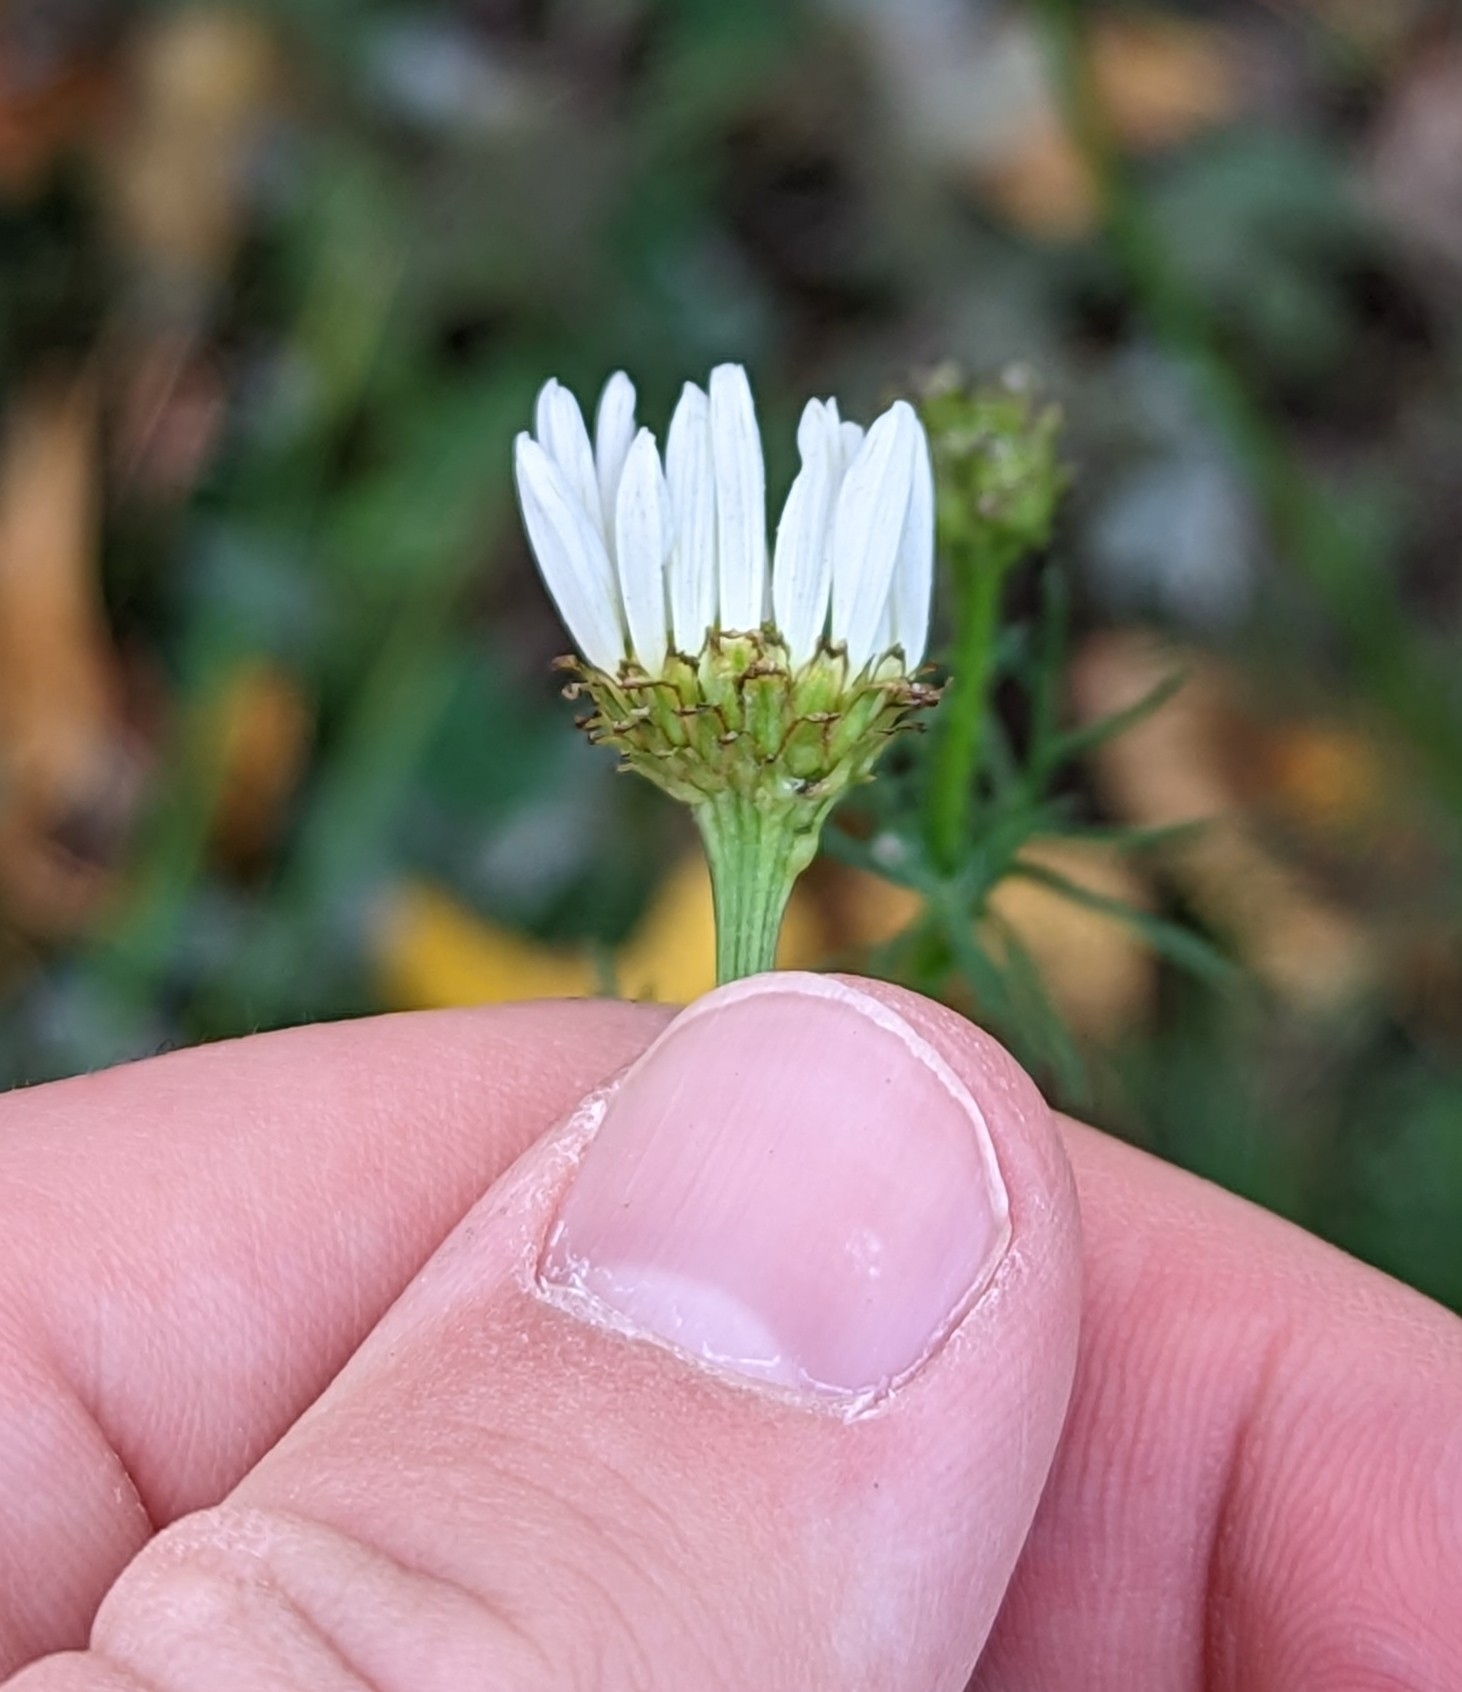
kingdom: Plantae
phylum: Tracheophyta
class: Magnoliopsida
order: Asterales
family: Asteraceae
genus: Tripleurospermum
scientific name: Tripleurospermum inodorum
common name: Scentless mayweed
